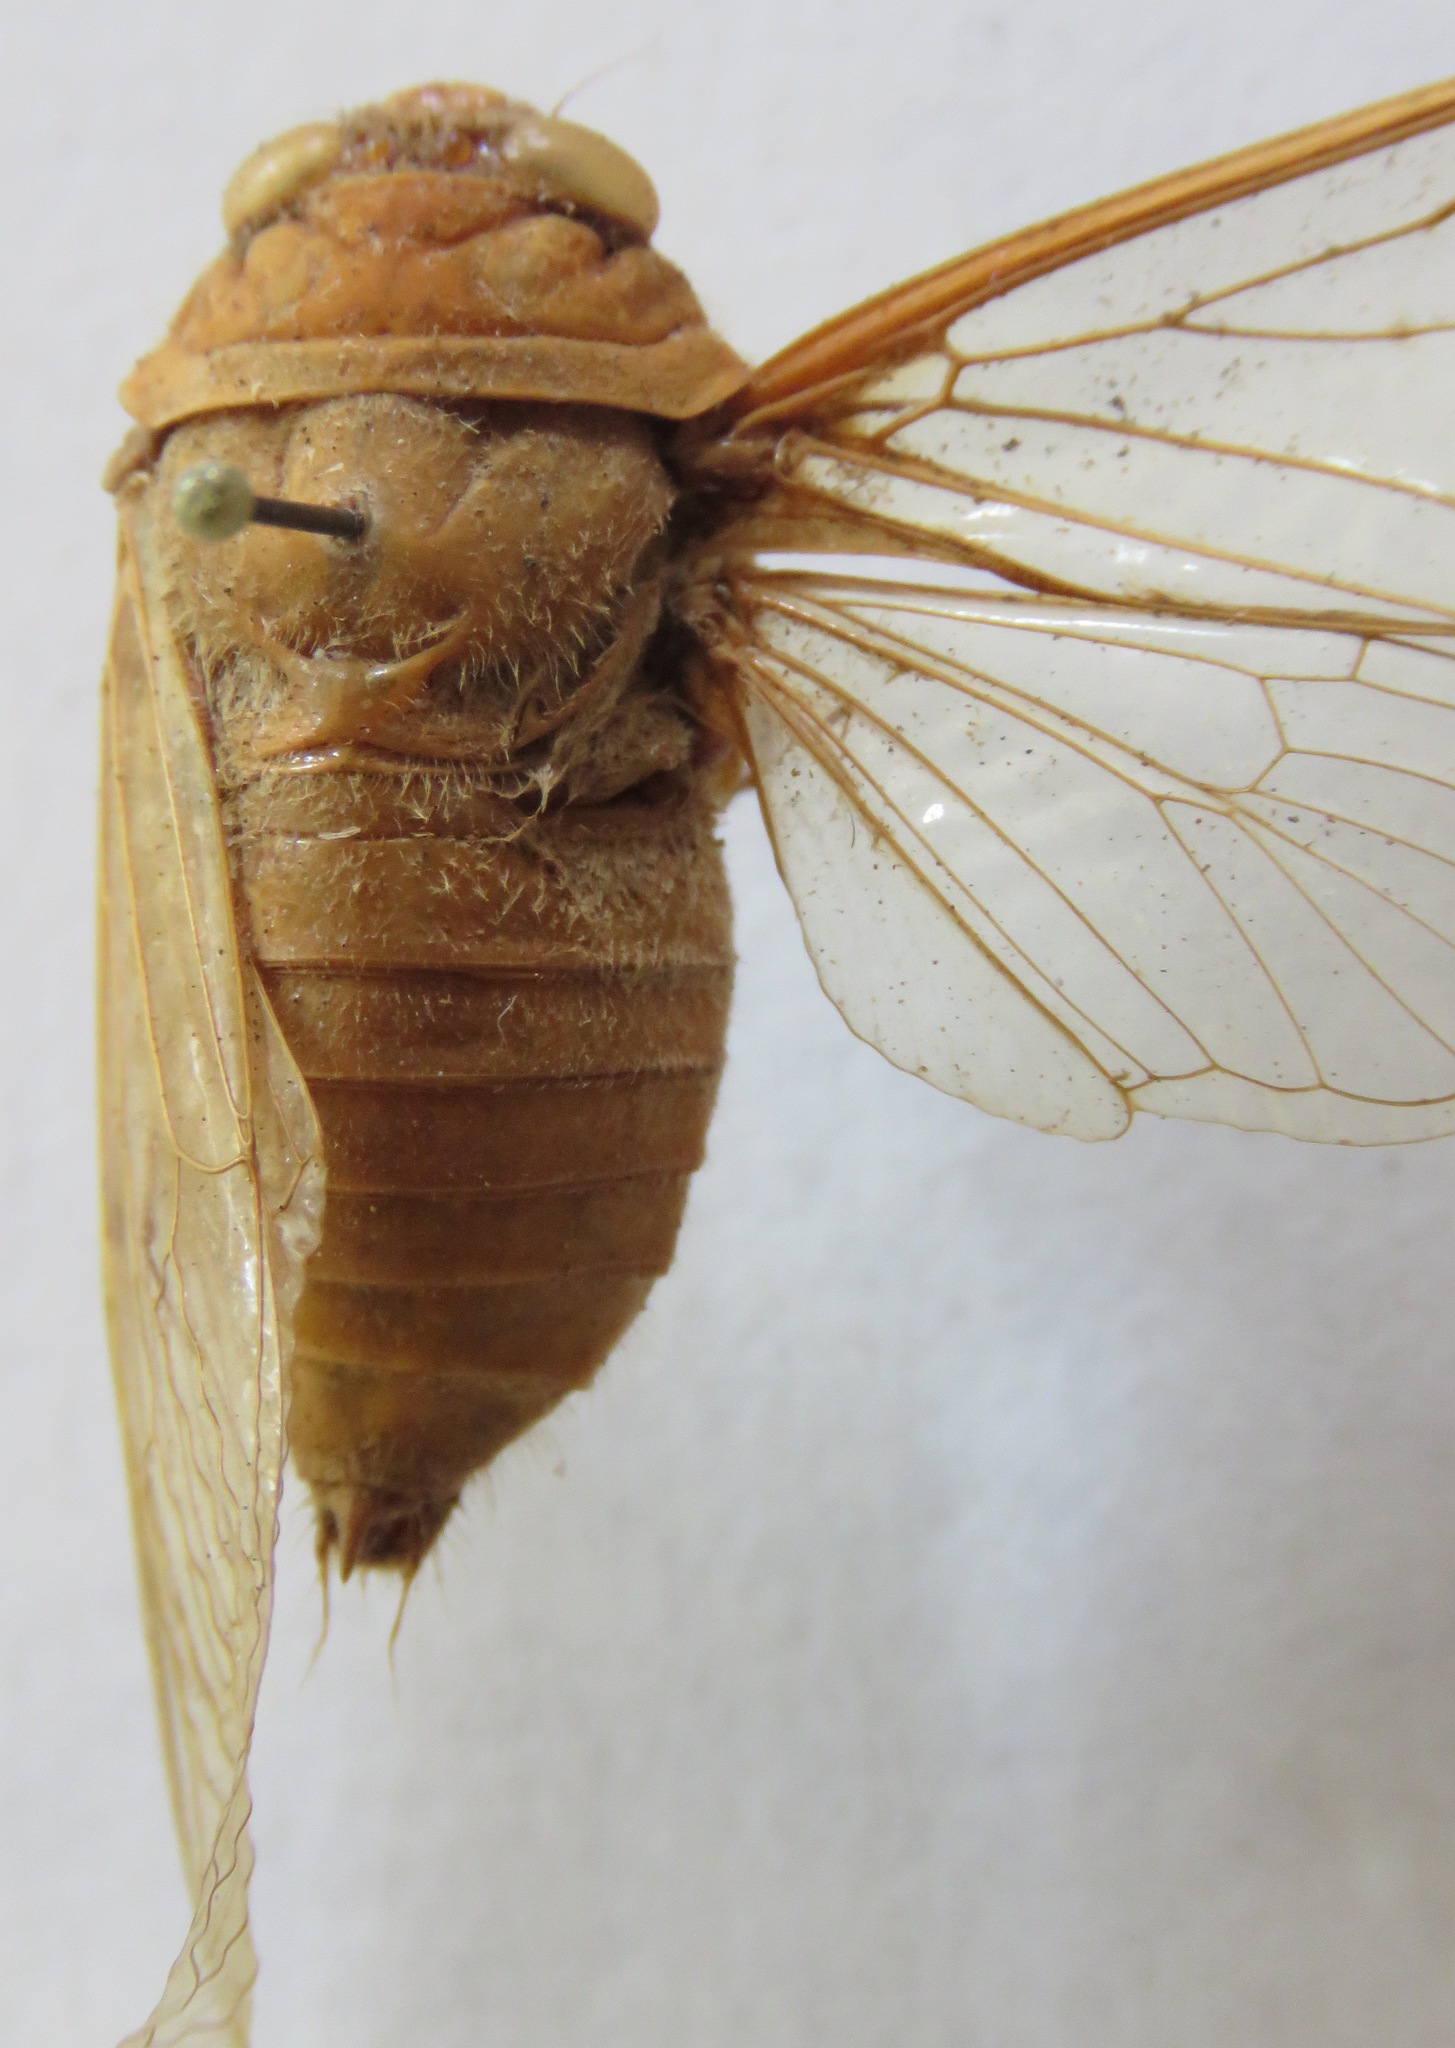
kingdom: Animalia
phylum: Arthropoda
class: Insecta
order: Hemiptera
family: Cicadidae
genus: Carineta
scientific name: Carineta viridicata
